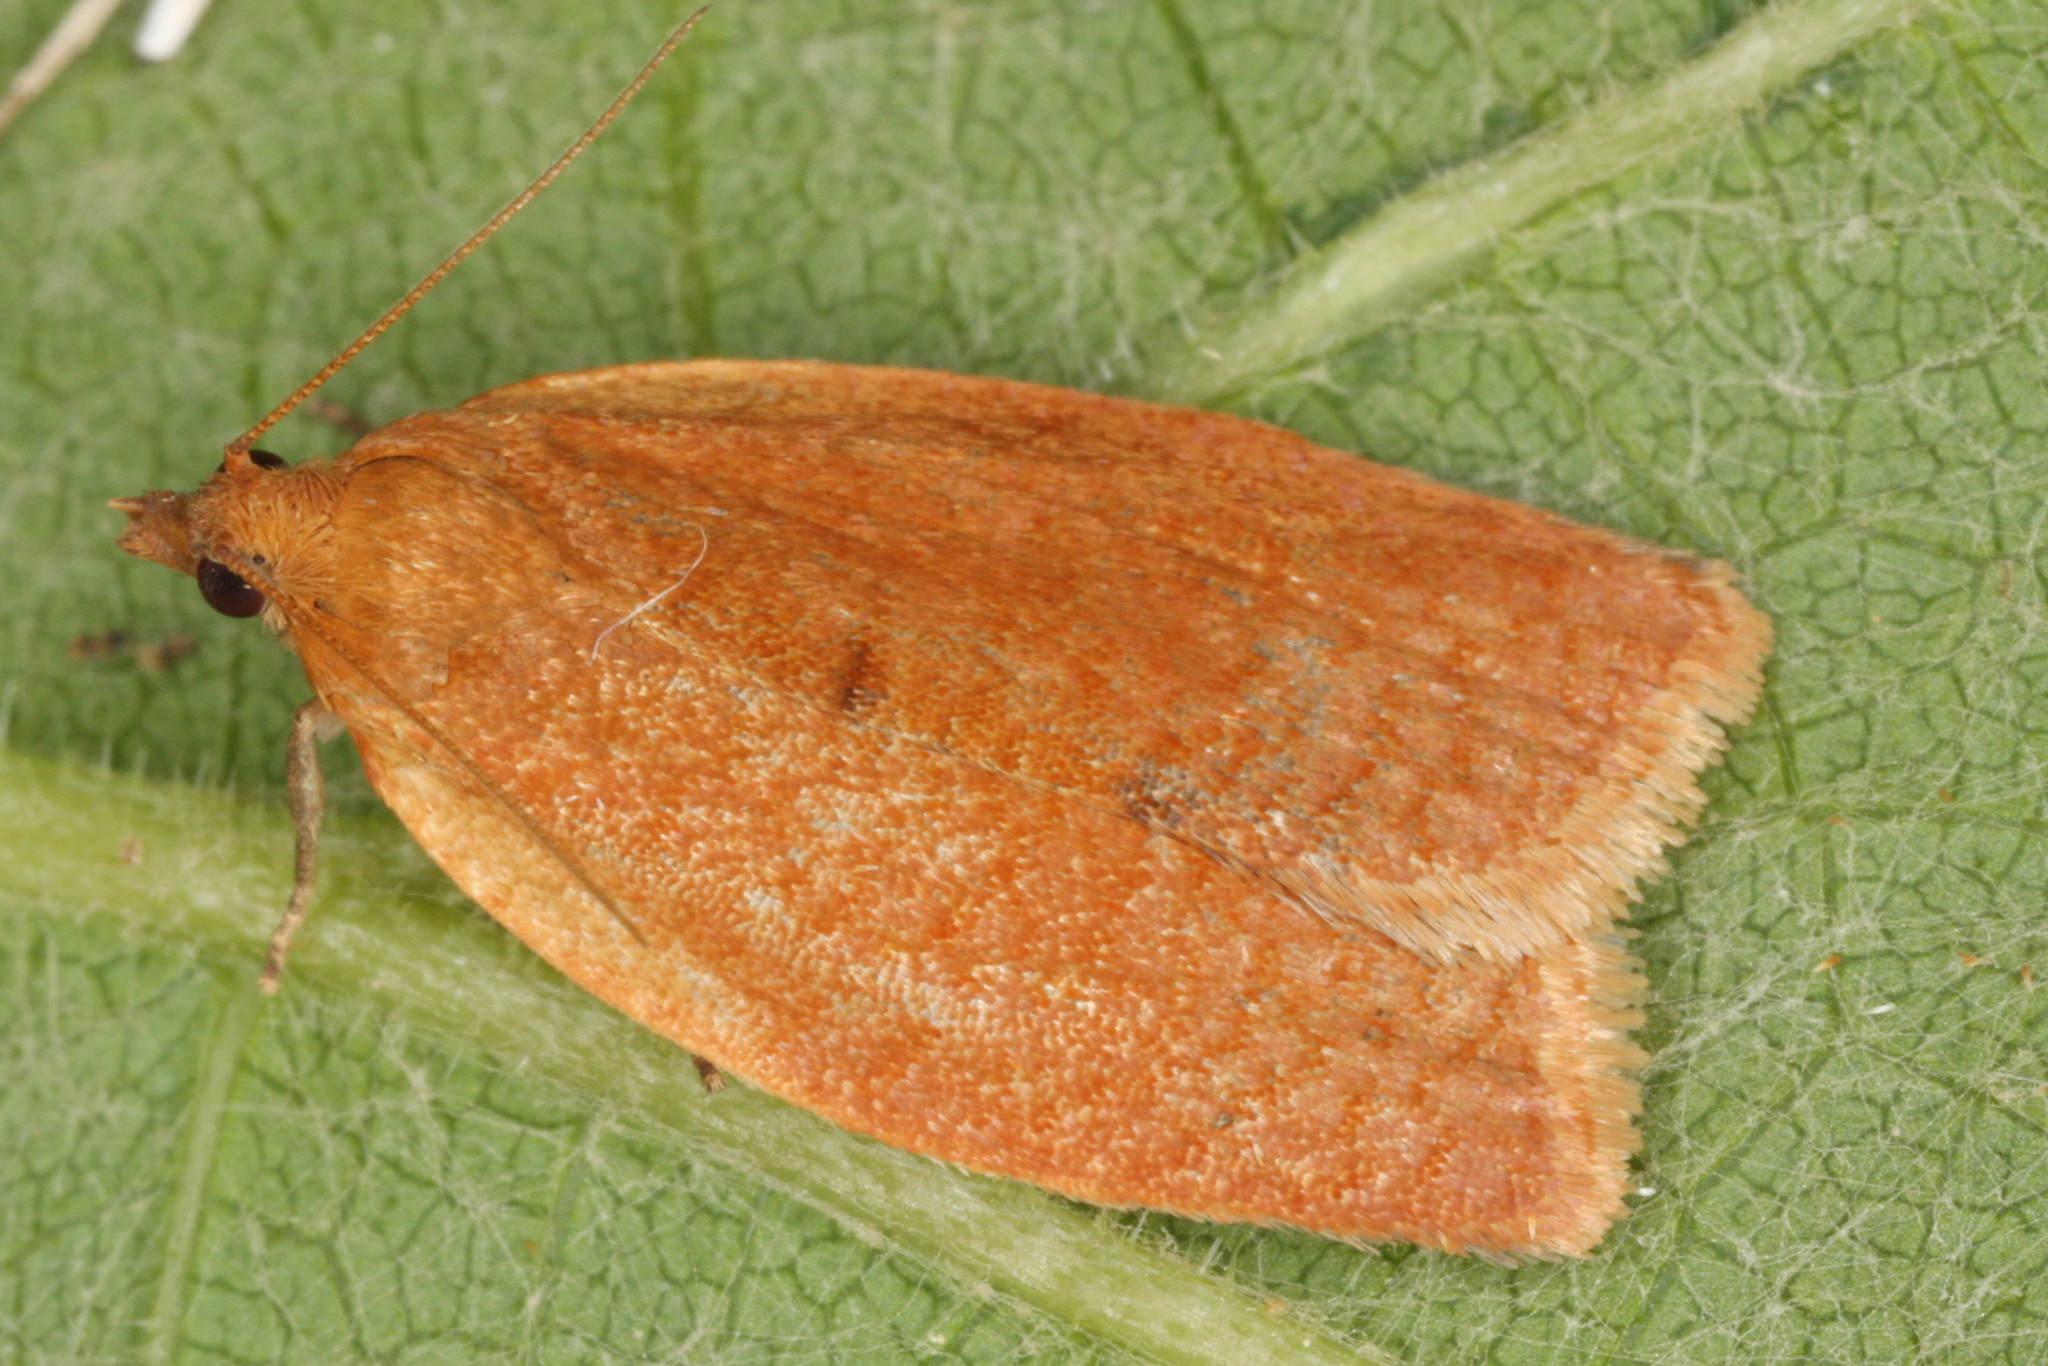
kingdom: Animalia
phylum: Arthropoda
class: Insecta
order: Lepidoptera
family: Tortricidae
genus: Clepsis
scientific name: Clepsis consimilana
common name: Privet tortrix
